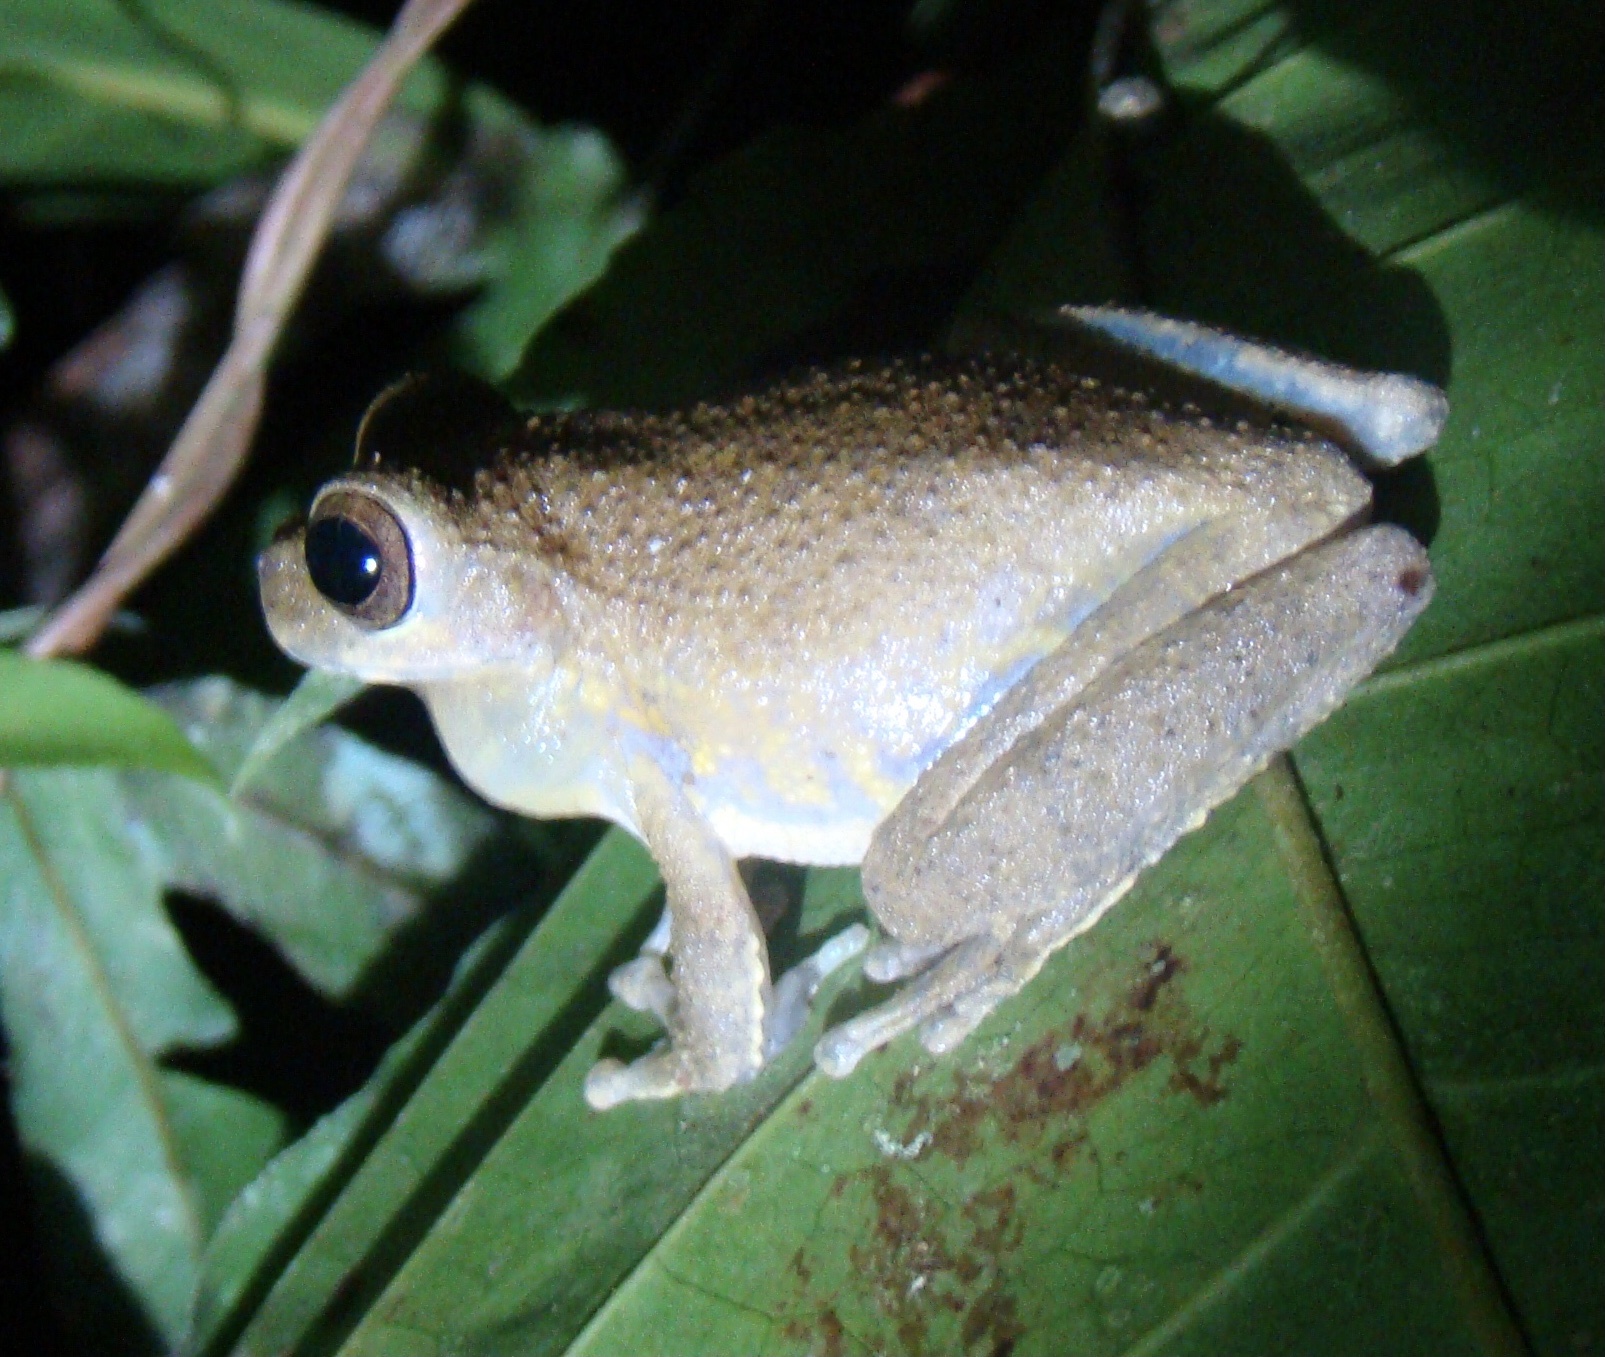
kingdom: Animalia
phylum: Chordata
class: Amphibia
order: Anura
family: Hylidae
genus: Smilisca
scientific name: Smilisca sila
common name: Panama cross-banded treefrog
